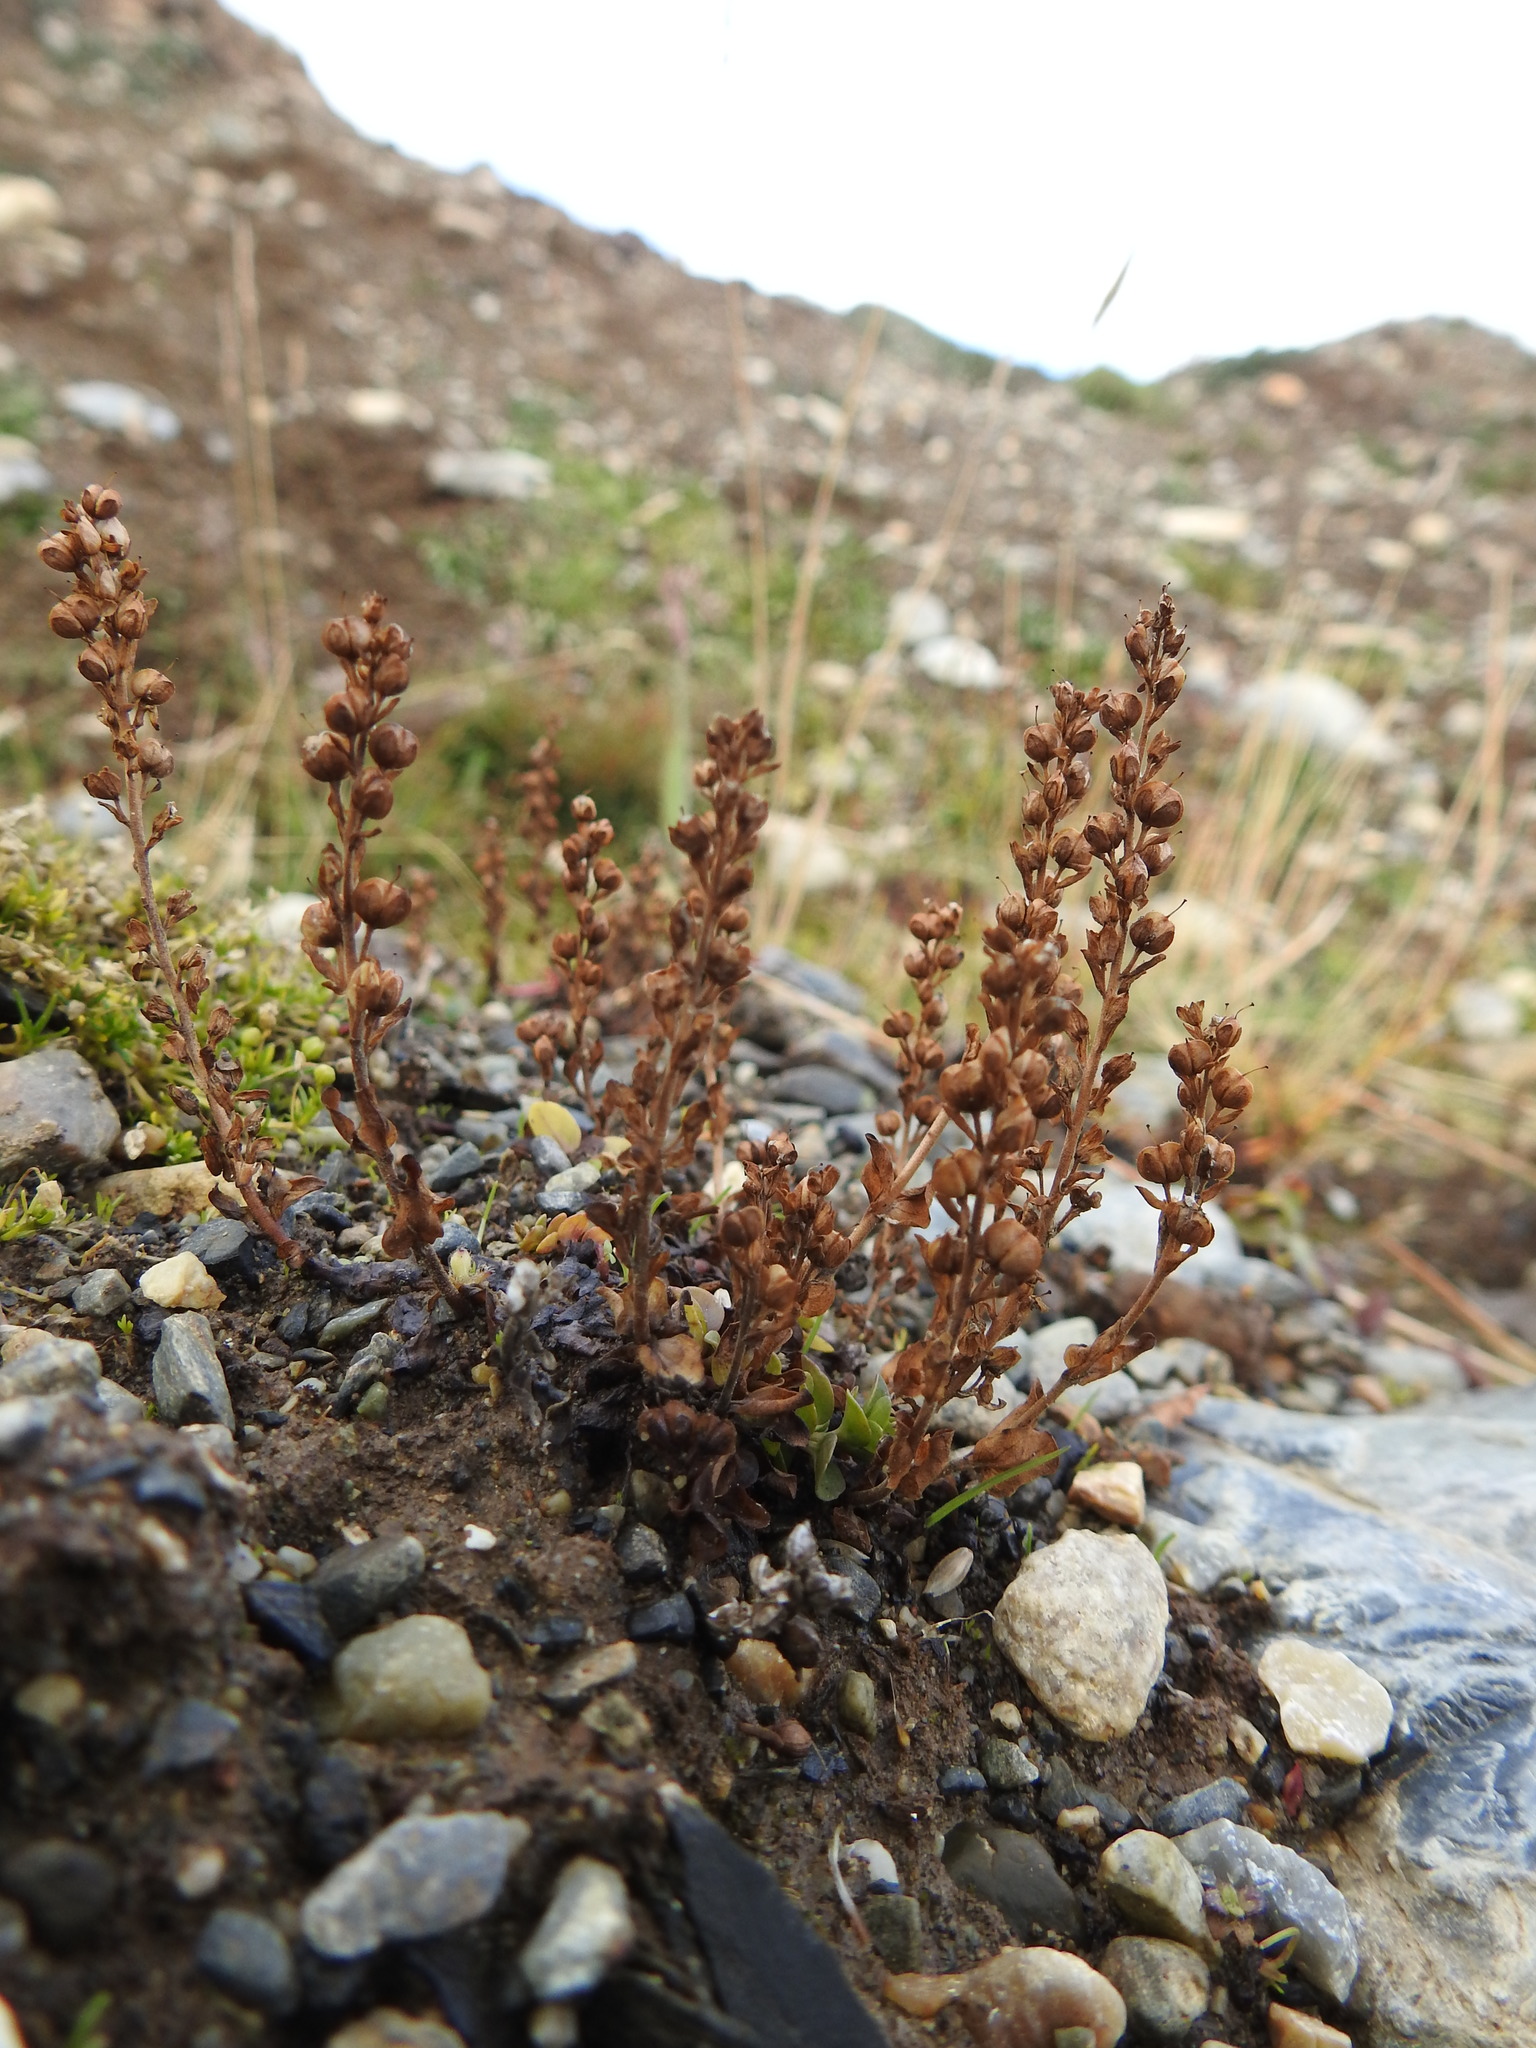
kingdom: Plantae
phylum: Tracheophyta
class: Magnoliopsida
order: Lamiales
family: Plantaginaceae
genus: Veronica
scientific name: Veronica serpyllifolia
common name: Thyme-leaved speedwell
